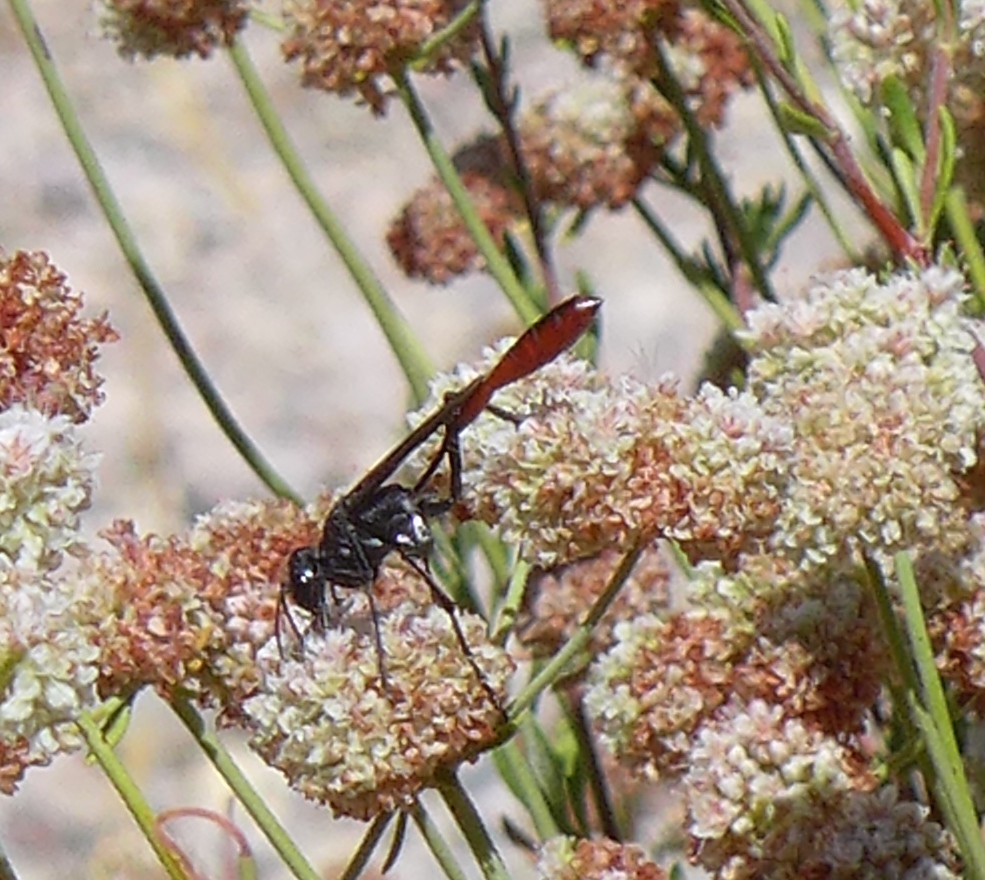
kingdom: Animalia
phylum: Arthropoda
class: Insecta
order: Hymenoptera
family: Sphecidae
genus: Ammophila
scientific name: Ammophila
